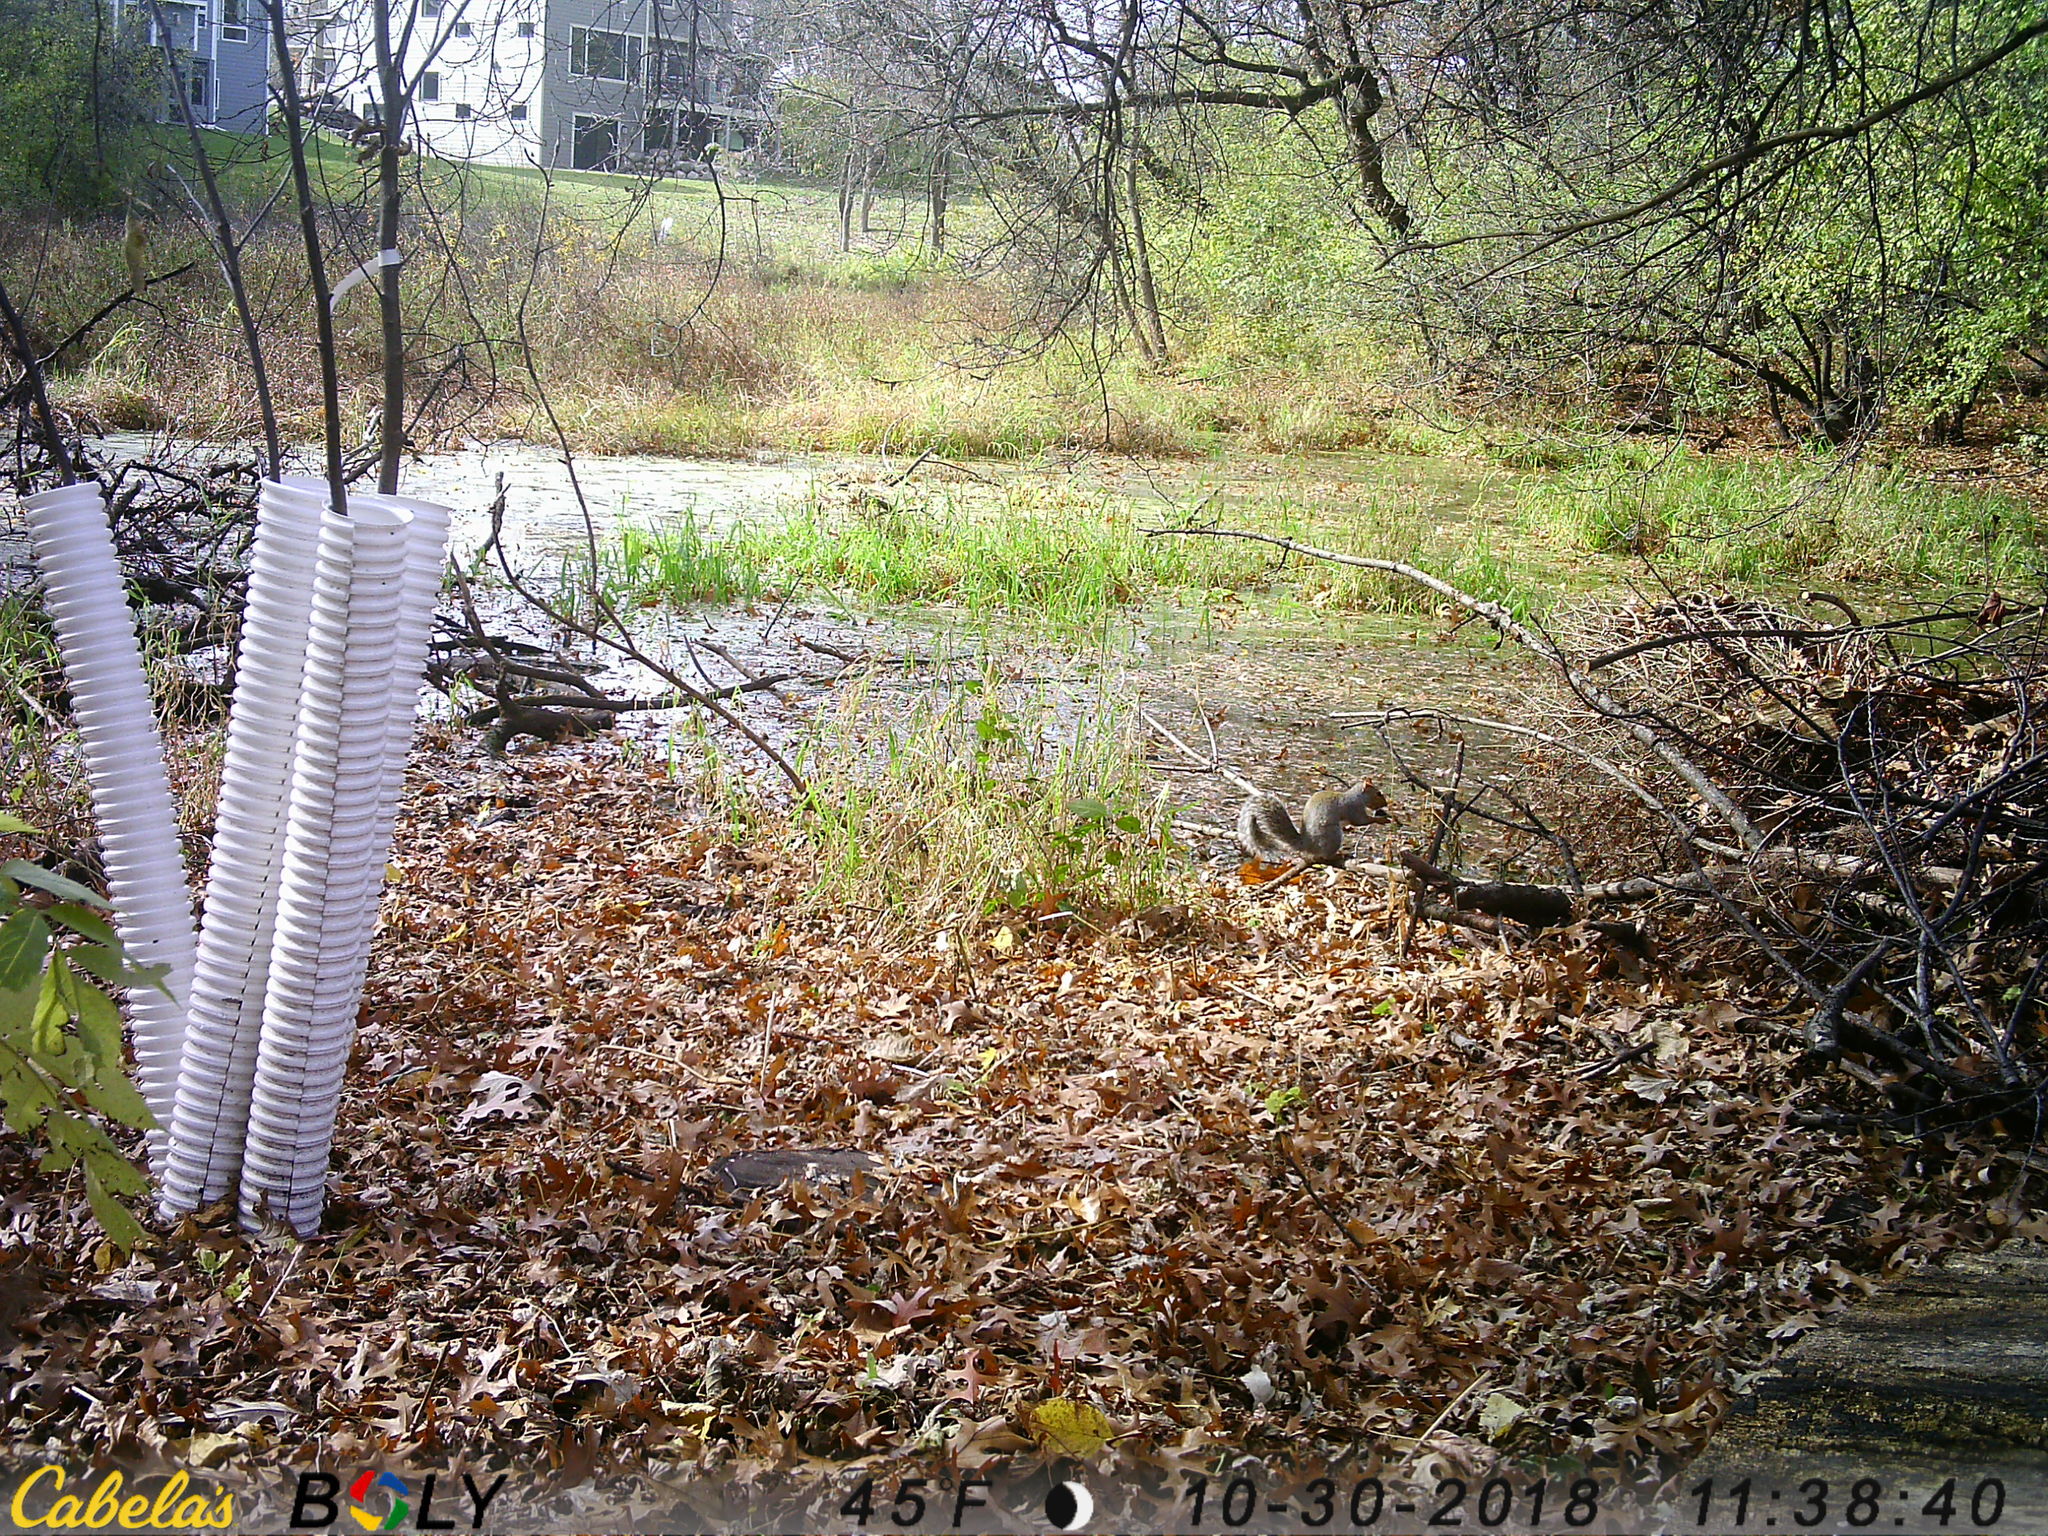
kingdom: Animalia
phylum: Chordata
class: Mammalia
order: Rodentia
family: Sciuridae
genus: Sciurus
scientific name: Sciurus carolinensis
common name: Eastern gray squirrel
